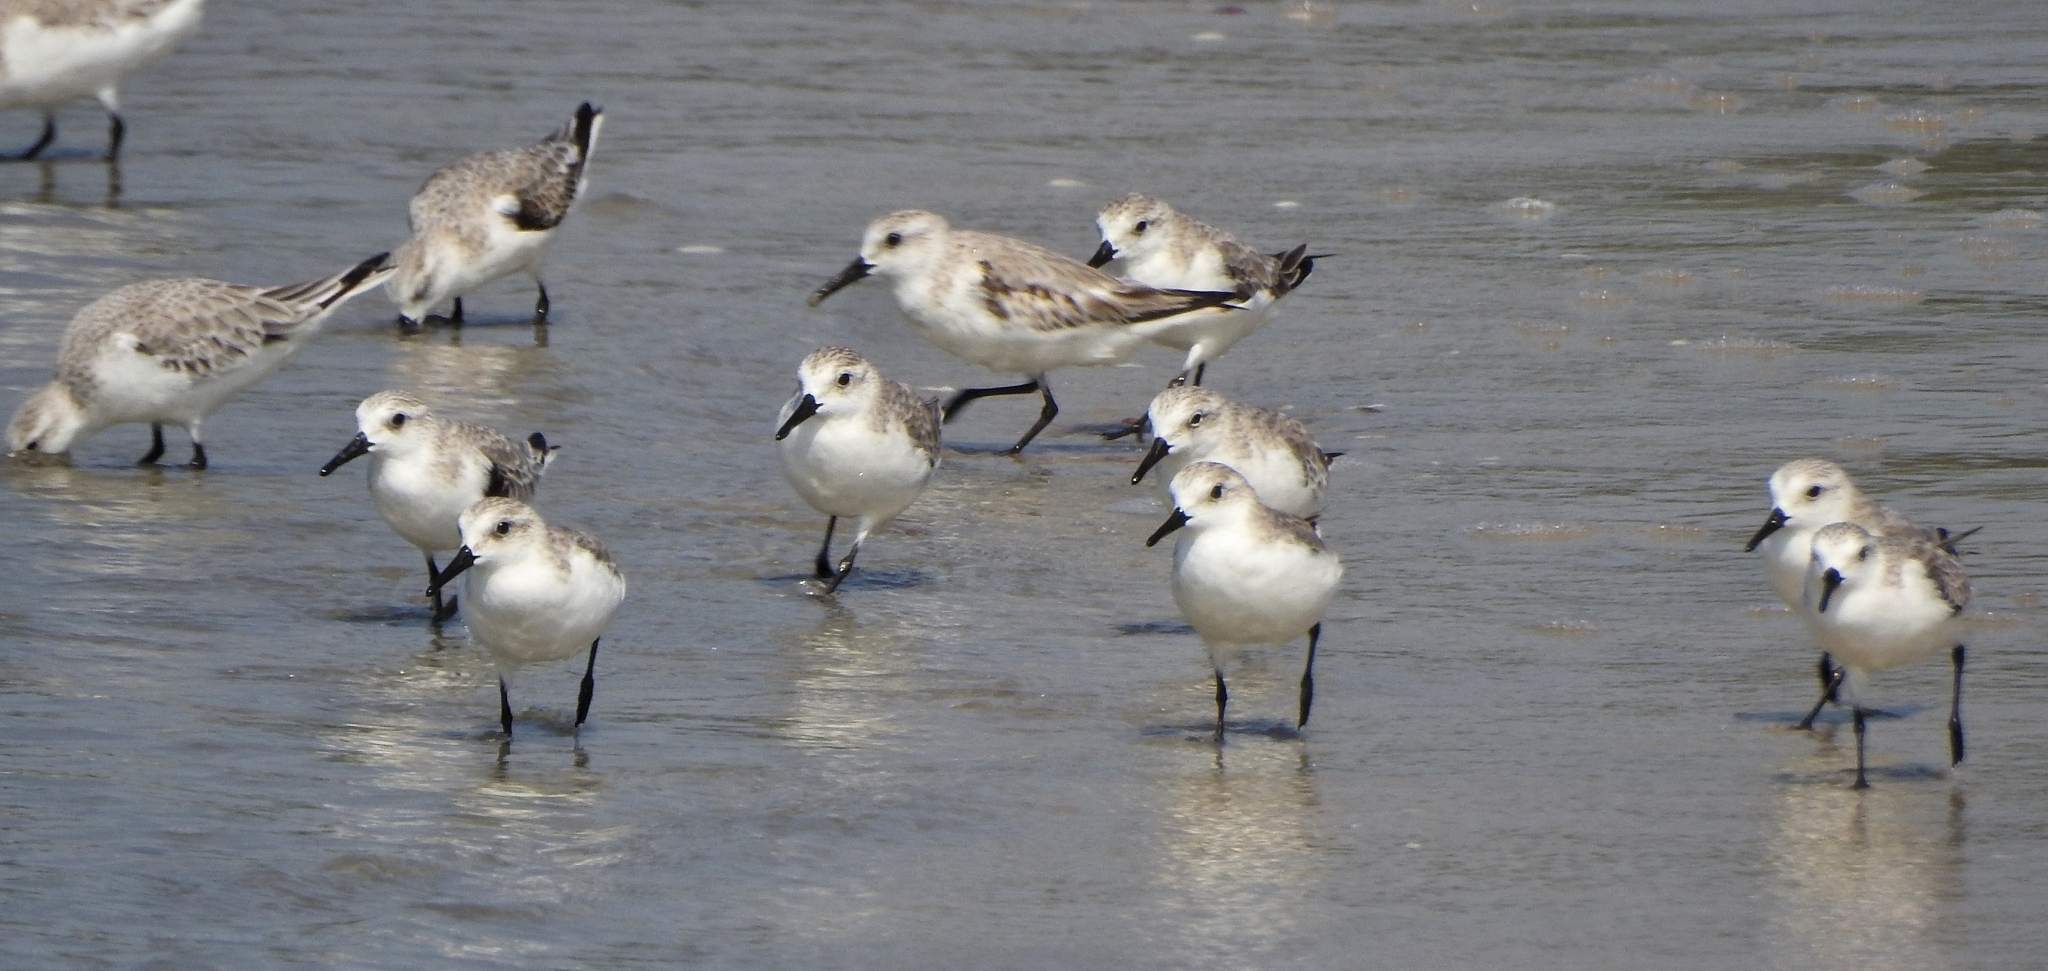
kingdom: Animalia
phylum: Chordata
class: Aves
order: Charadriiformes
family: Scolopacidae
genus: Calidris
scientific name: Calidris alba
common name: Sanderling
